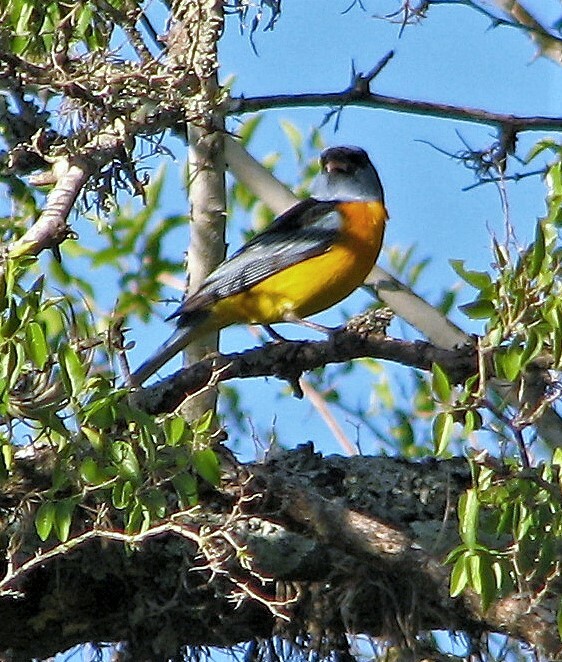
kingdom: Animalia
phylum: Chordata
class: Aves
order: Passeriformes
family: Thraupidae
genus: Rauenia
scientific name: Rauenia bonariensis
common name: Blue-and-yellow tanager
